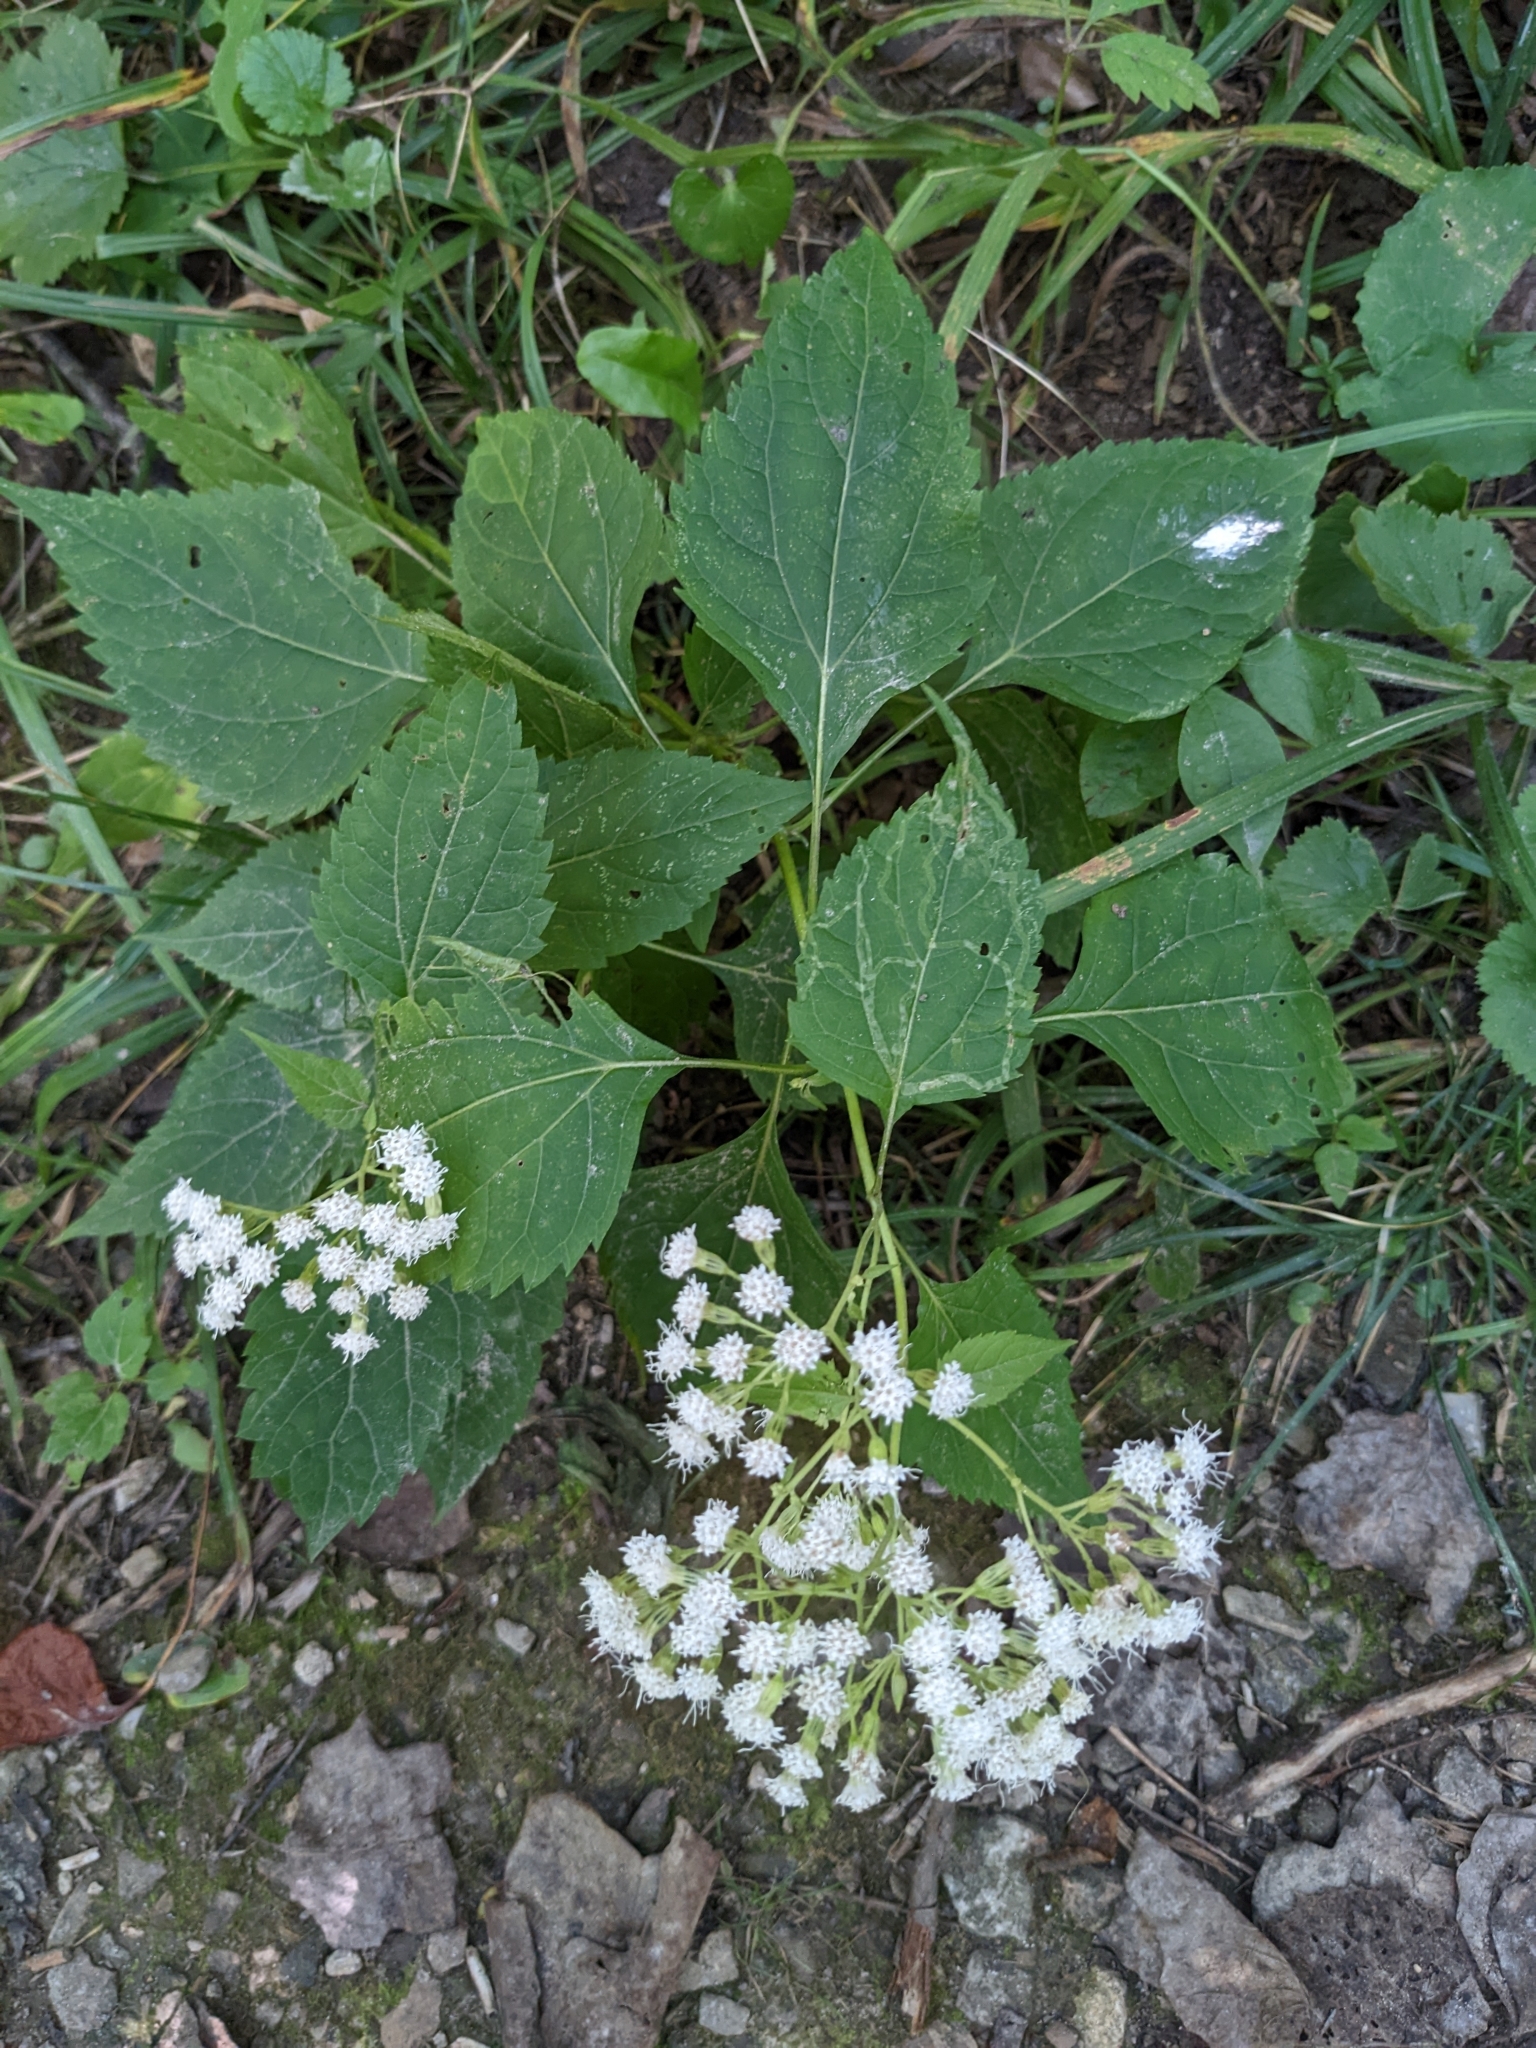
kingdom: Plantae
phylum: Tracheophyta
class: Magnoliopsida
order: Asterales
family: Asteraceae
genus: Ageratina
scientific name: Ageratina altissima
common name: White snakeroot
